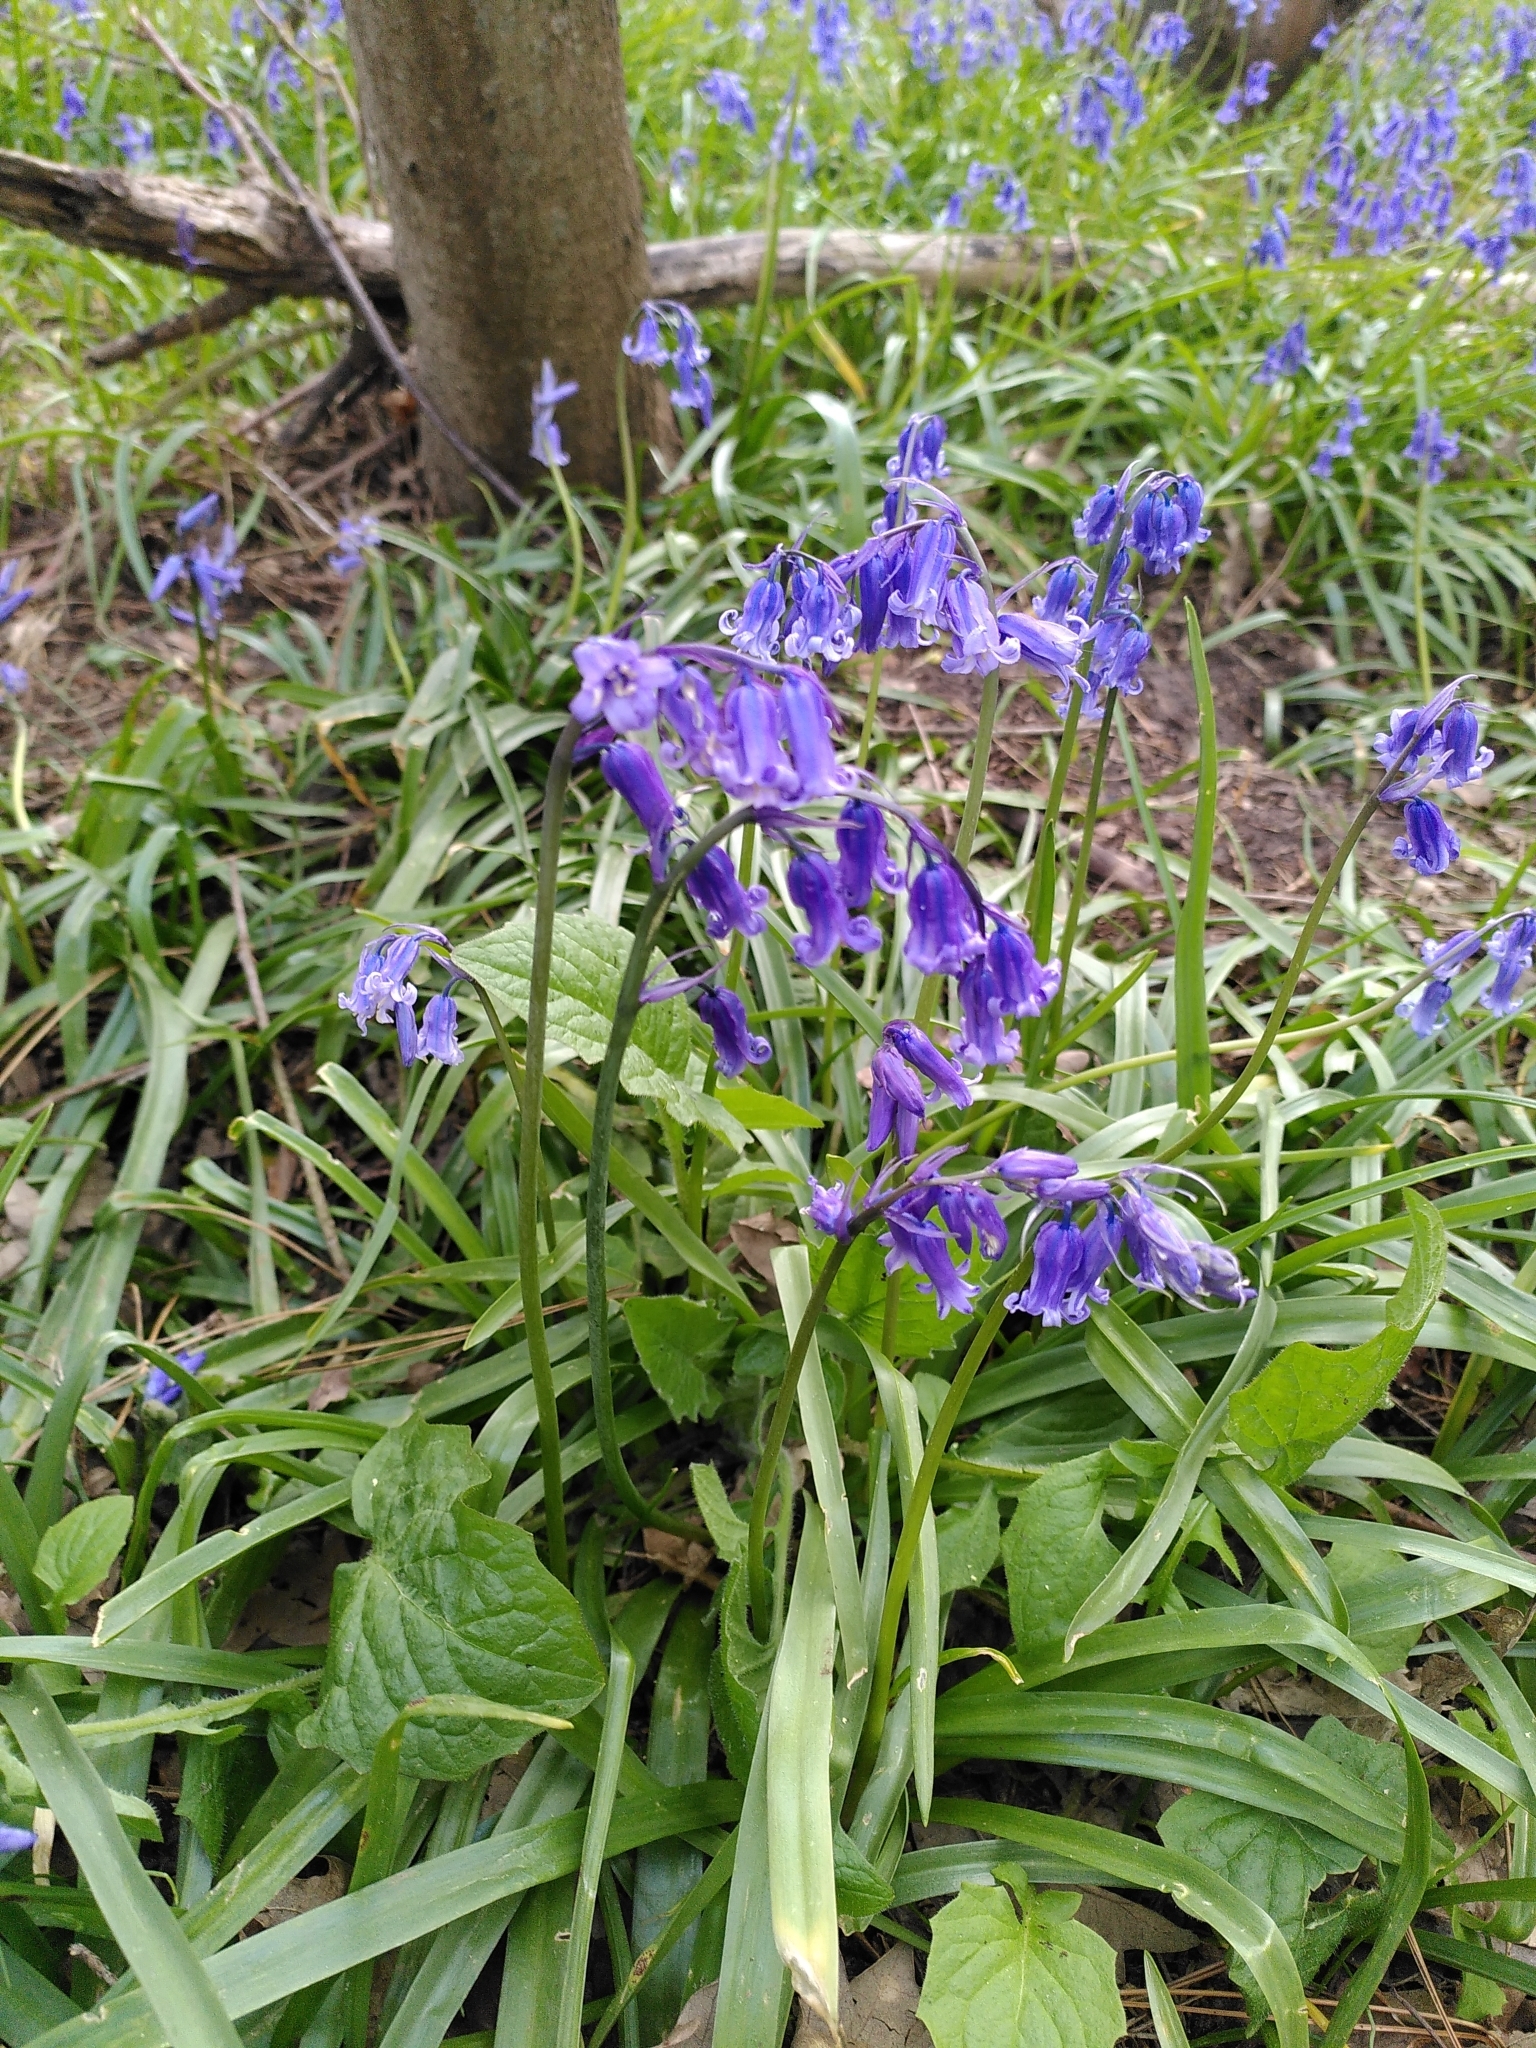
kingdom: Plantae
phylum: Tracheophyta
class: Liliopsida
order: Asparagales
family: Asparagaceae
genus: Hyacinthoides
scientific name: Hyacinthoides non-scripta
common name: Bluebell
